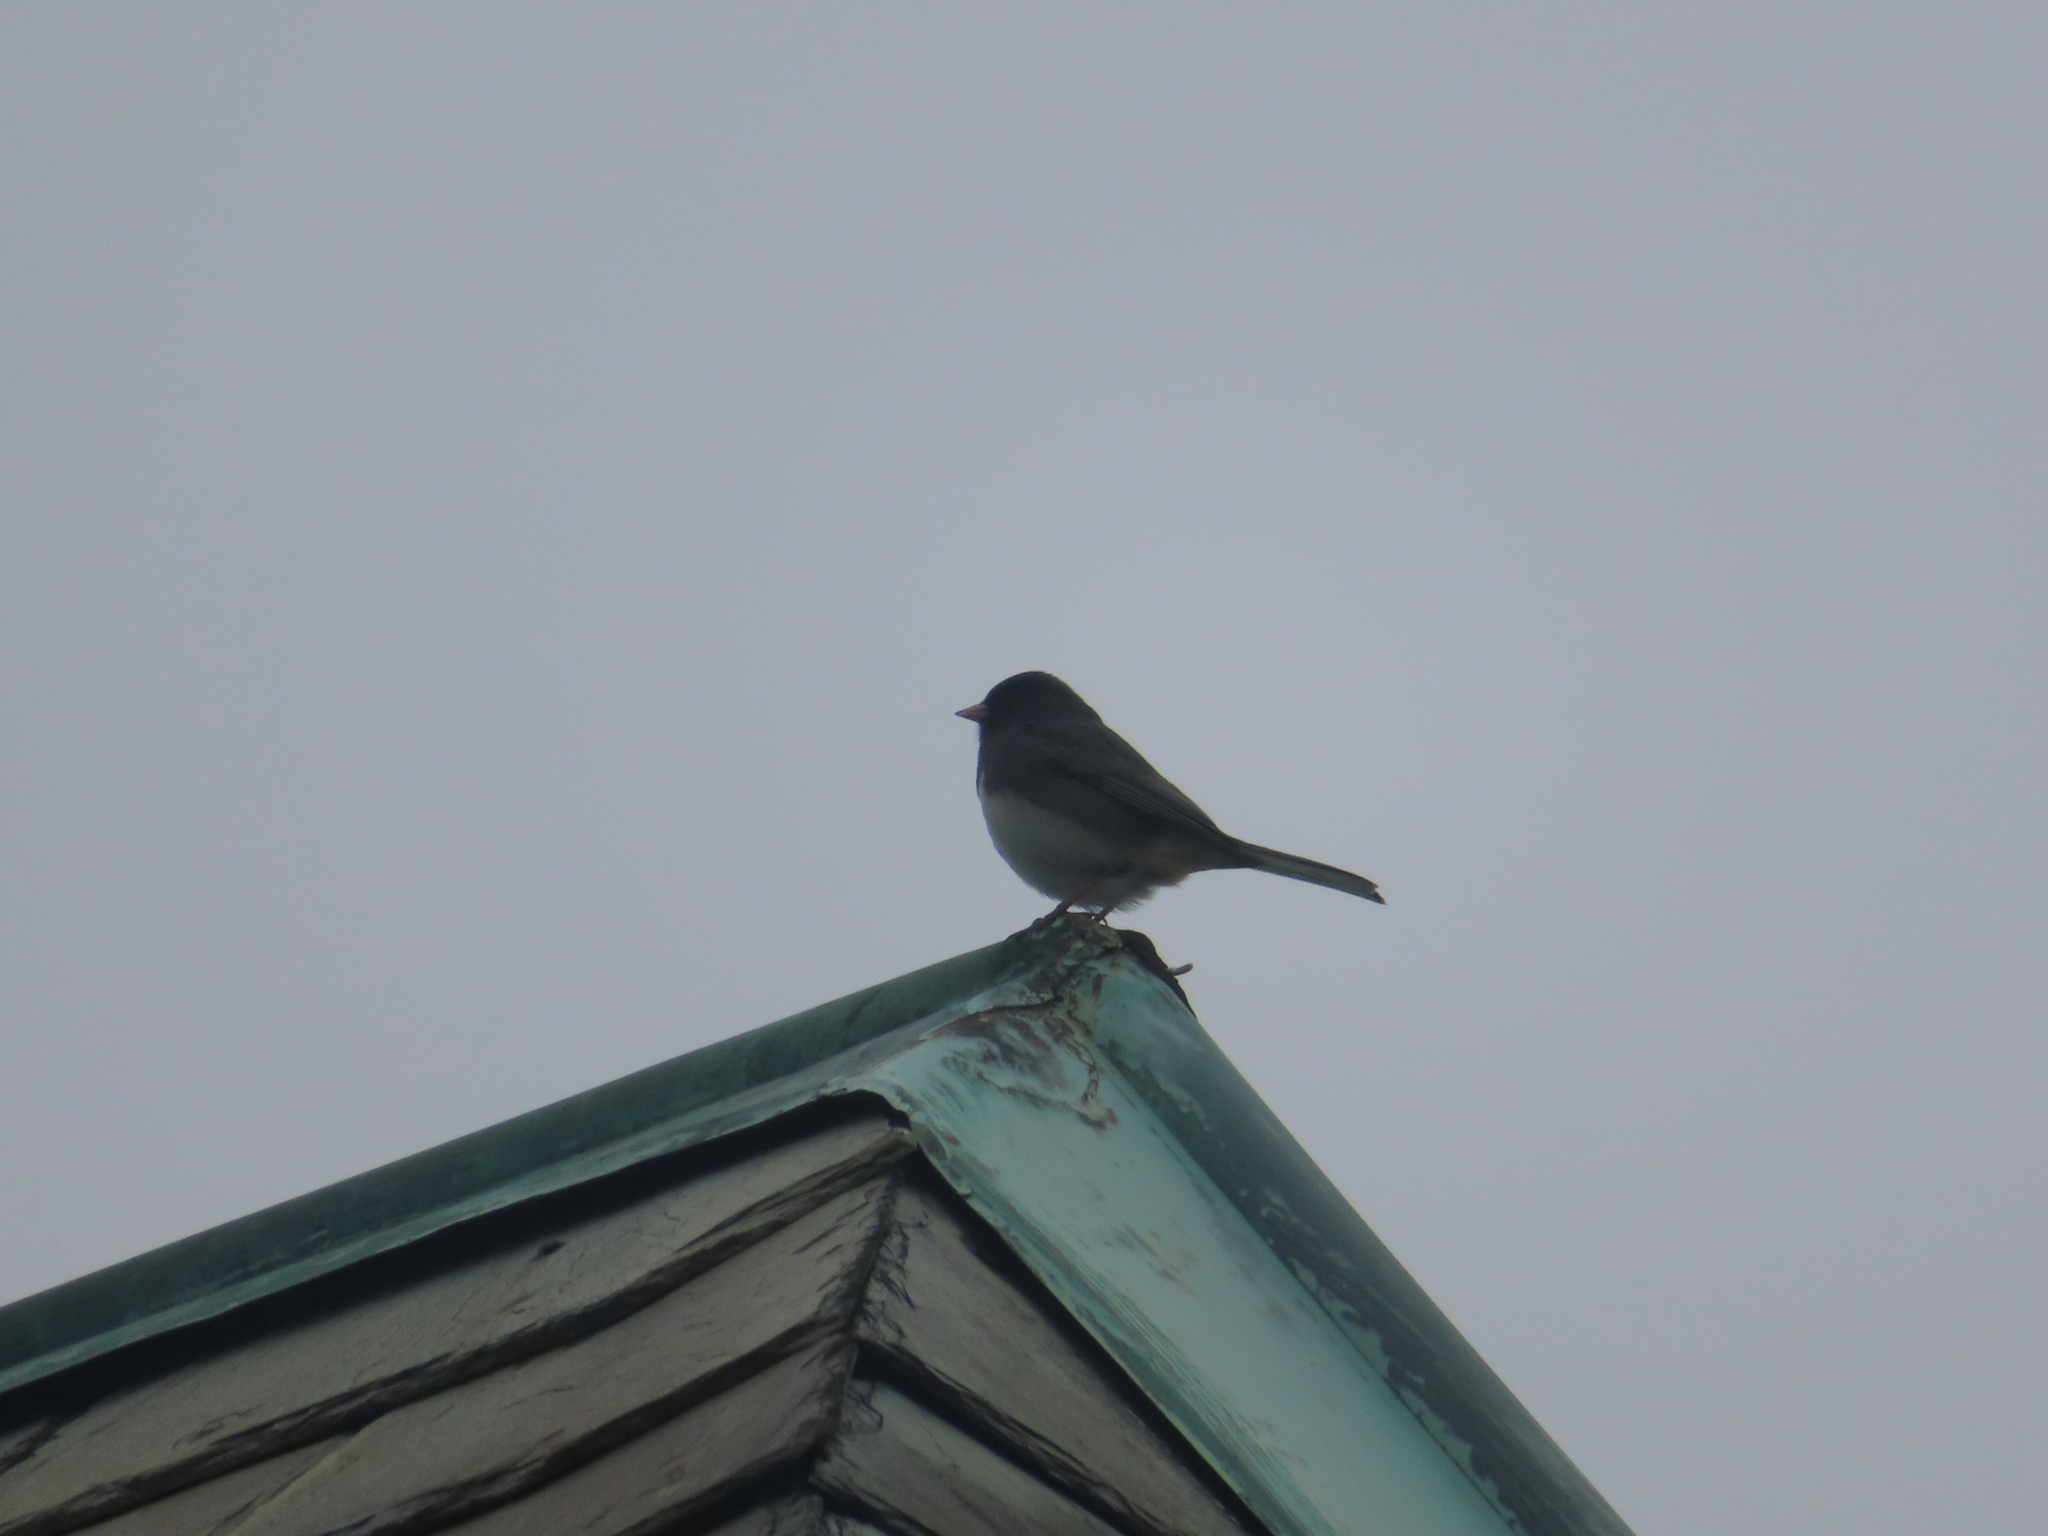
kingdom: Animalia
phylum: Chordata
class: Aves
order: Passeriformes
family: Passerellidae
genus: Junco
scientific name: Junco hyemalis
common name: Dark-eyed junco
